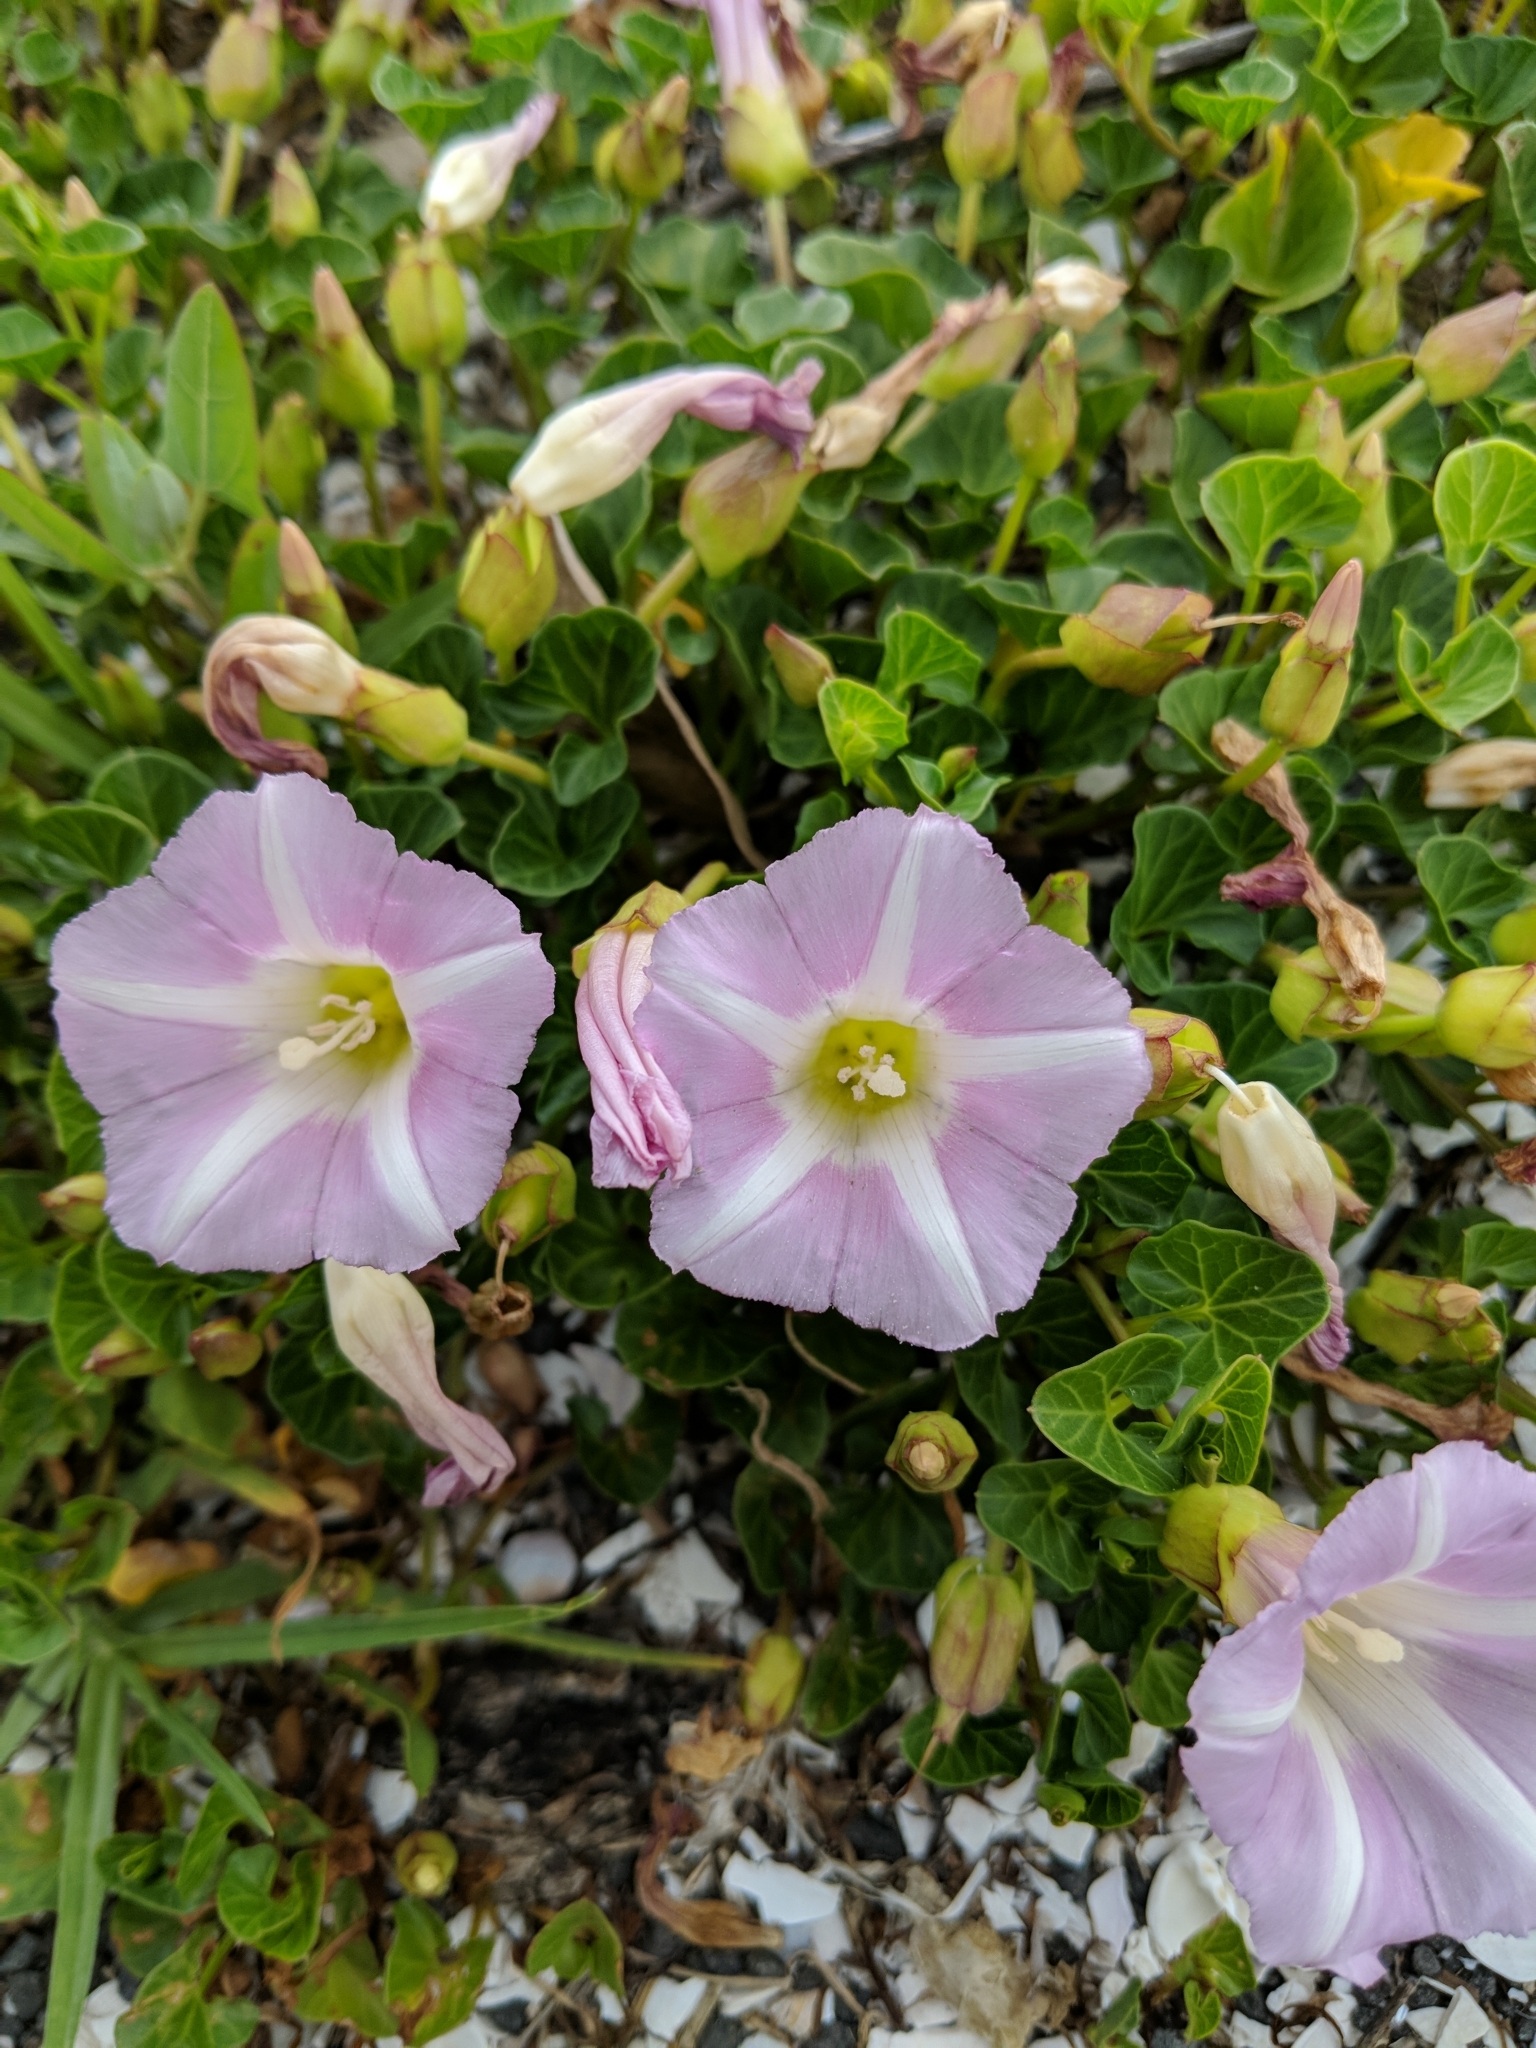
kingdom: Plantae
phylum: Tracheophyta
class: Magnoliopsida
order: Solanales
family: Convolvulaceae
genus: Calystegia
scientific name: Calystegia soldanella
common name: Sea bindweed
